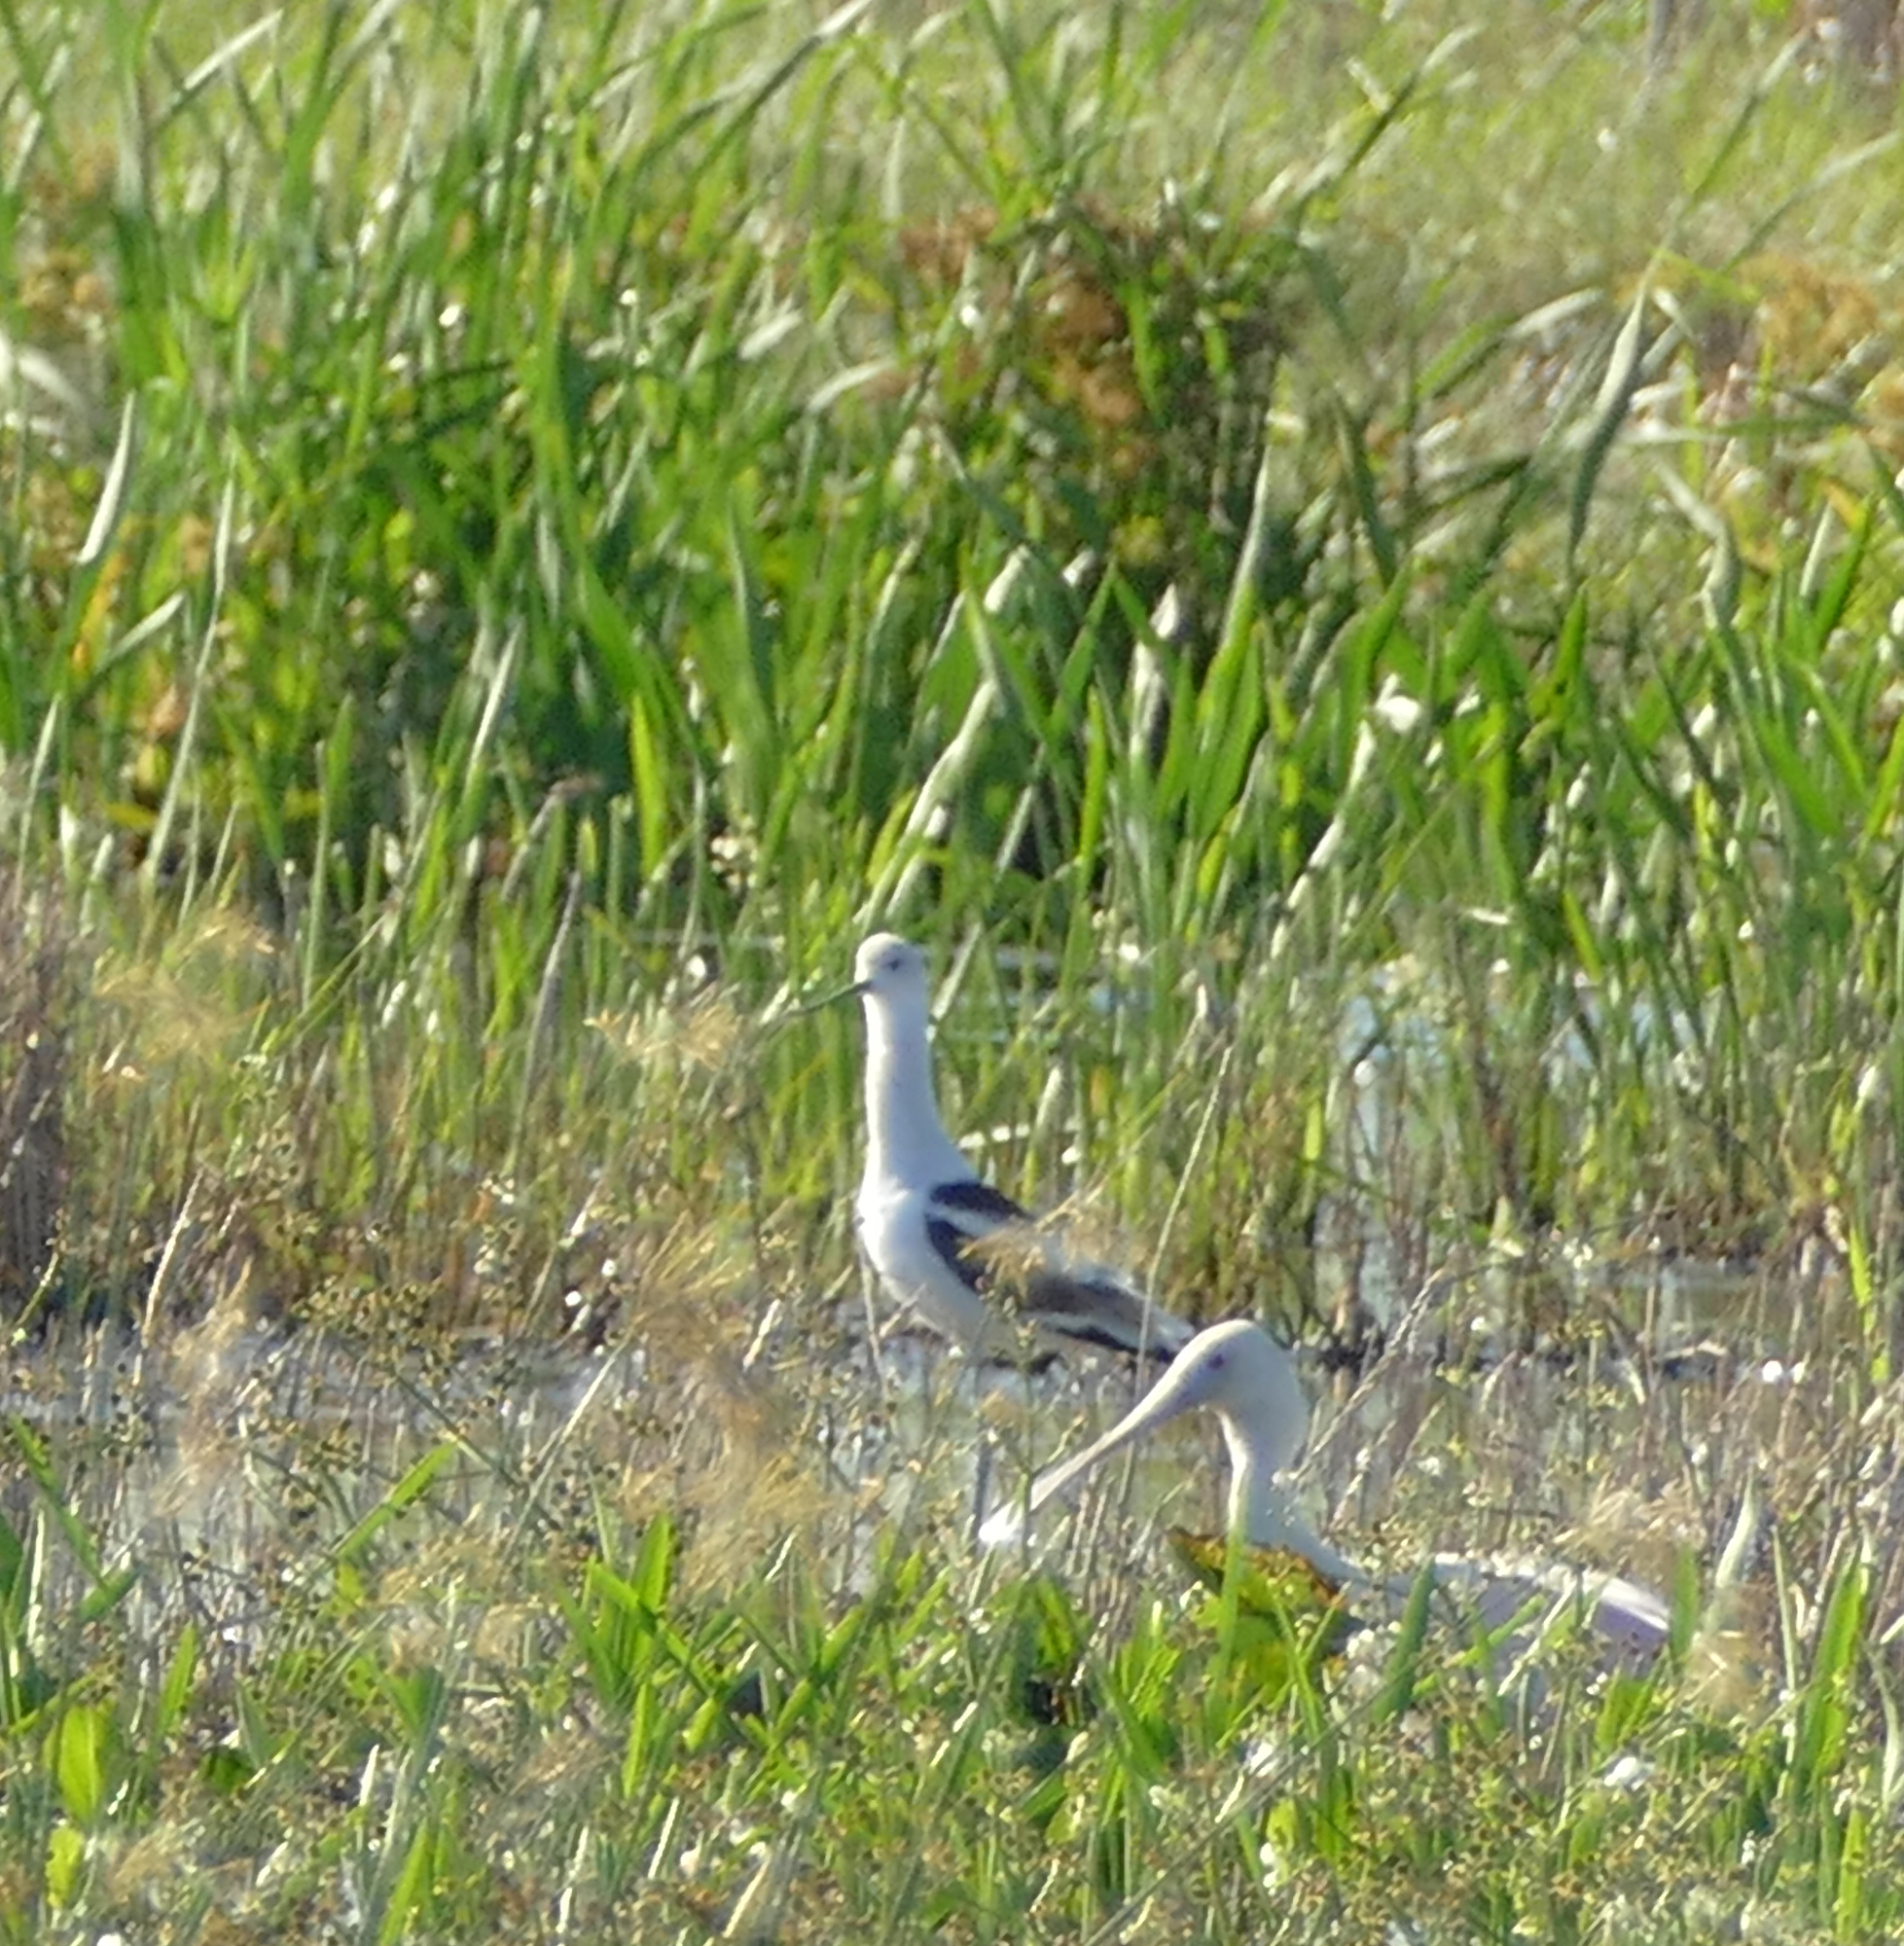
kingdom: Animalia
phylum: Chordata
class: Aves
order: Charadriiformes
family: Recurvirostridae
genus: Recurvirostra
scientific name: Recurvirostra americana
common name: American avocet
